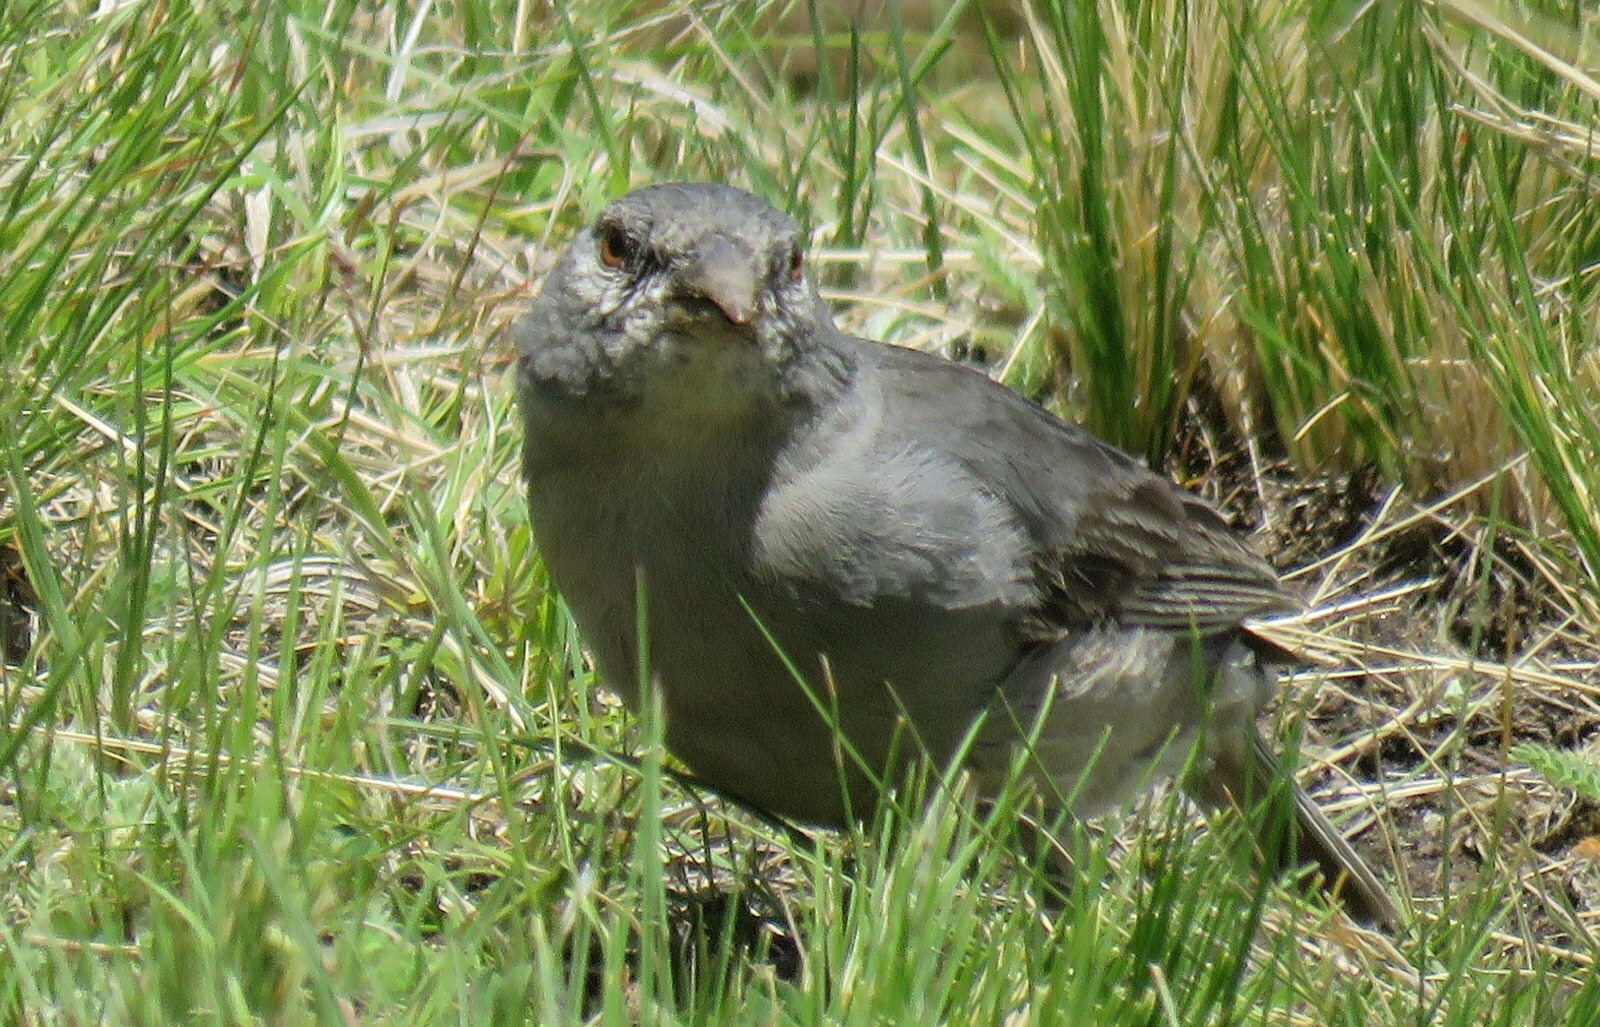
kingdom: Animalia
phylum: Chordata
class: Aves
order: Passeriformes
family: Thraupidae
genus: Idiopsar
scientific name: Idiopsar brachyurus
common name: Short-tailed finch
